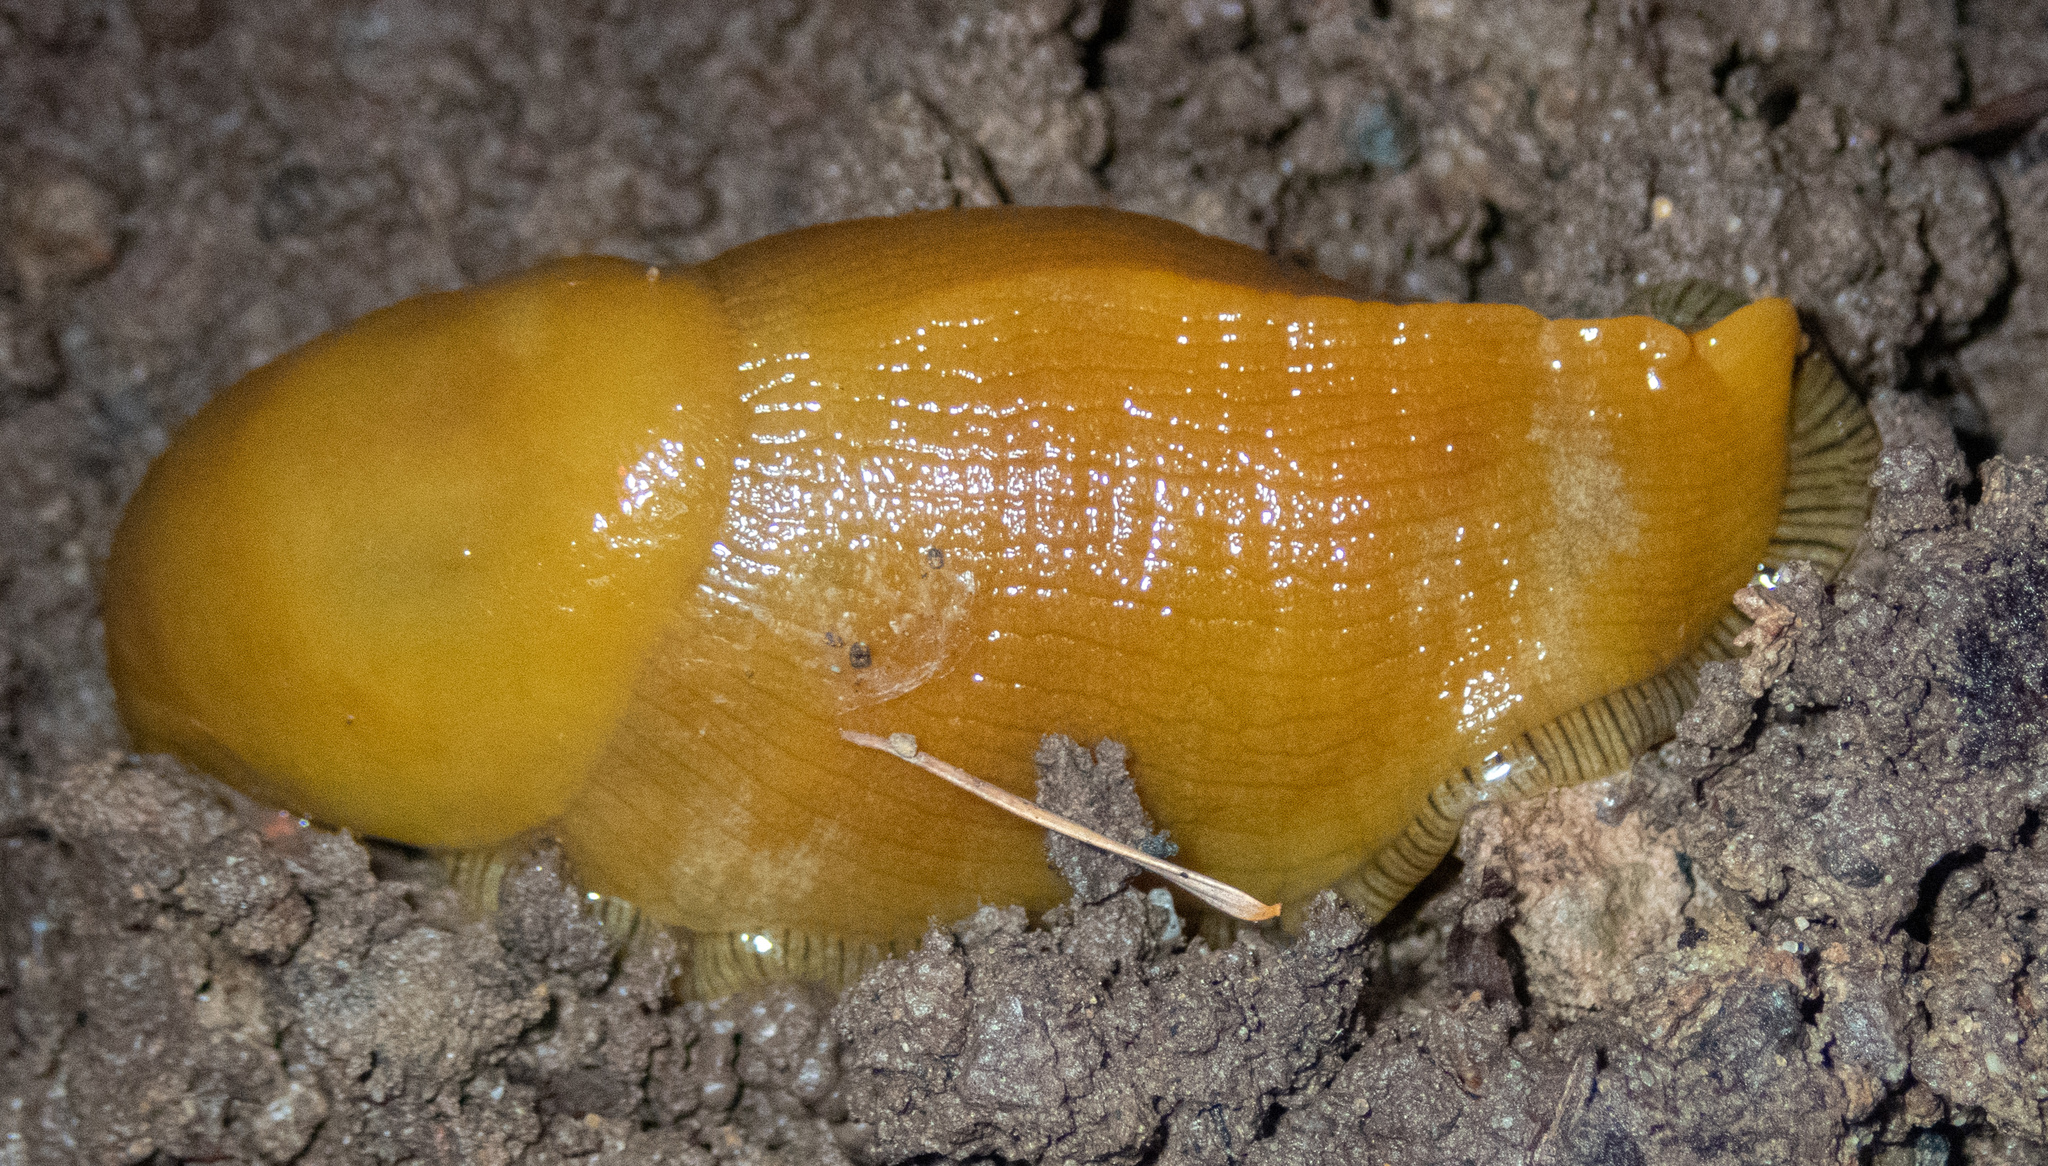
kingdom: Animalia
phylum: Mollusca
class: Gastropoda
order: Stylommatophora
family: Ariolimacidae
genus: Ariolimax
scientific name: Ariolimax buttoni
